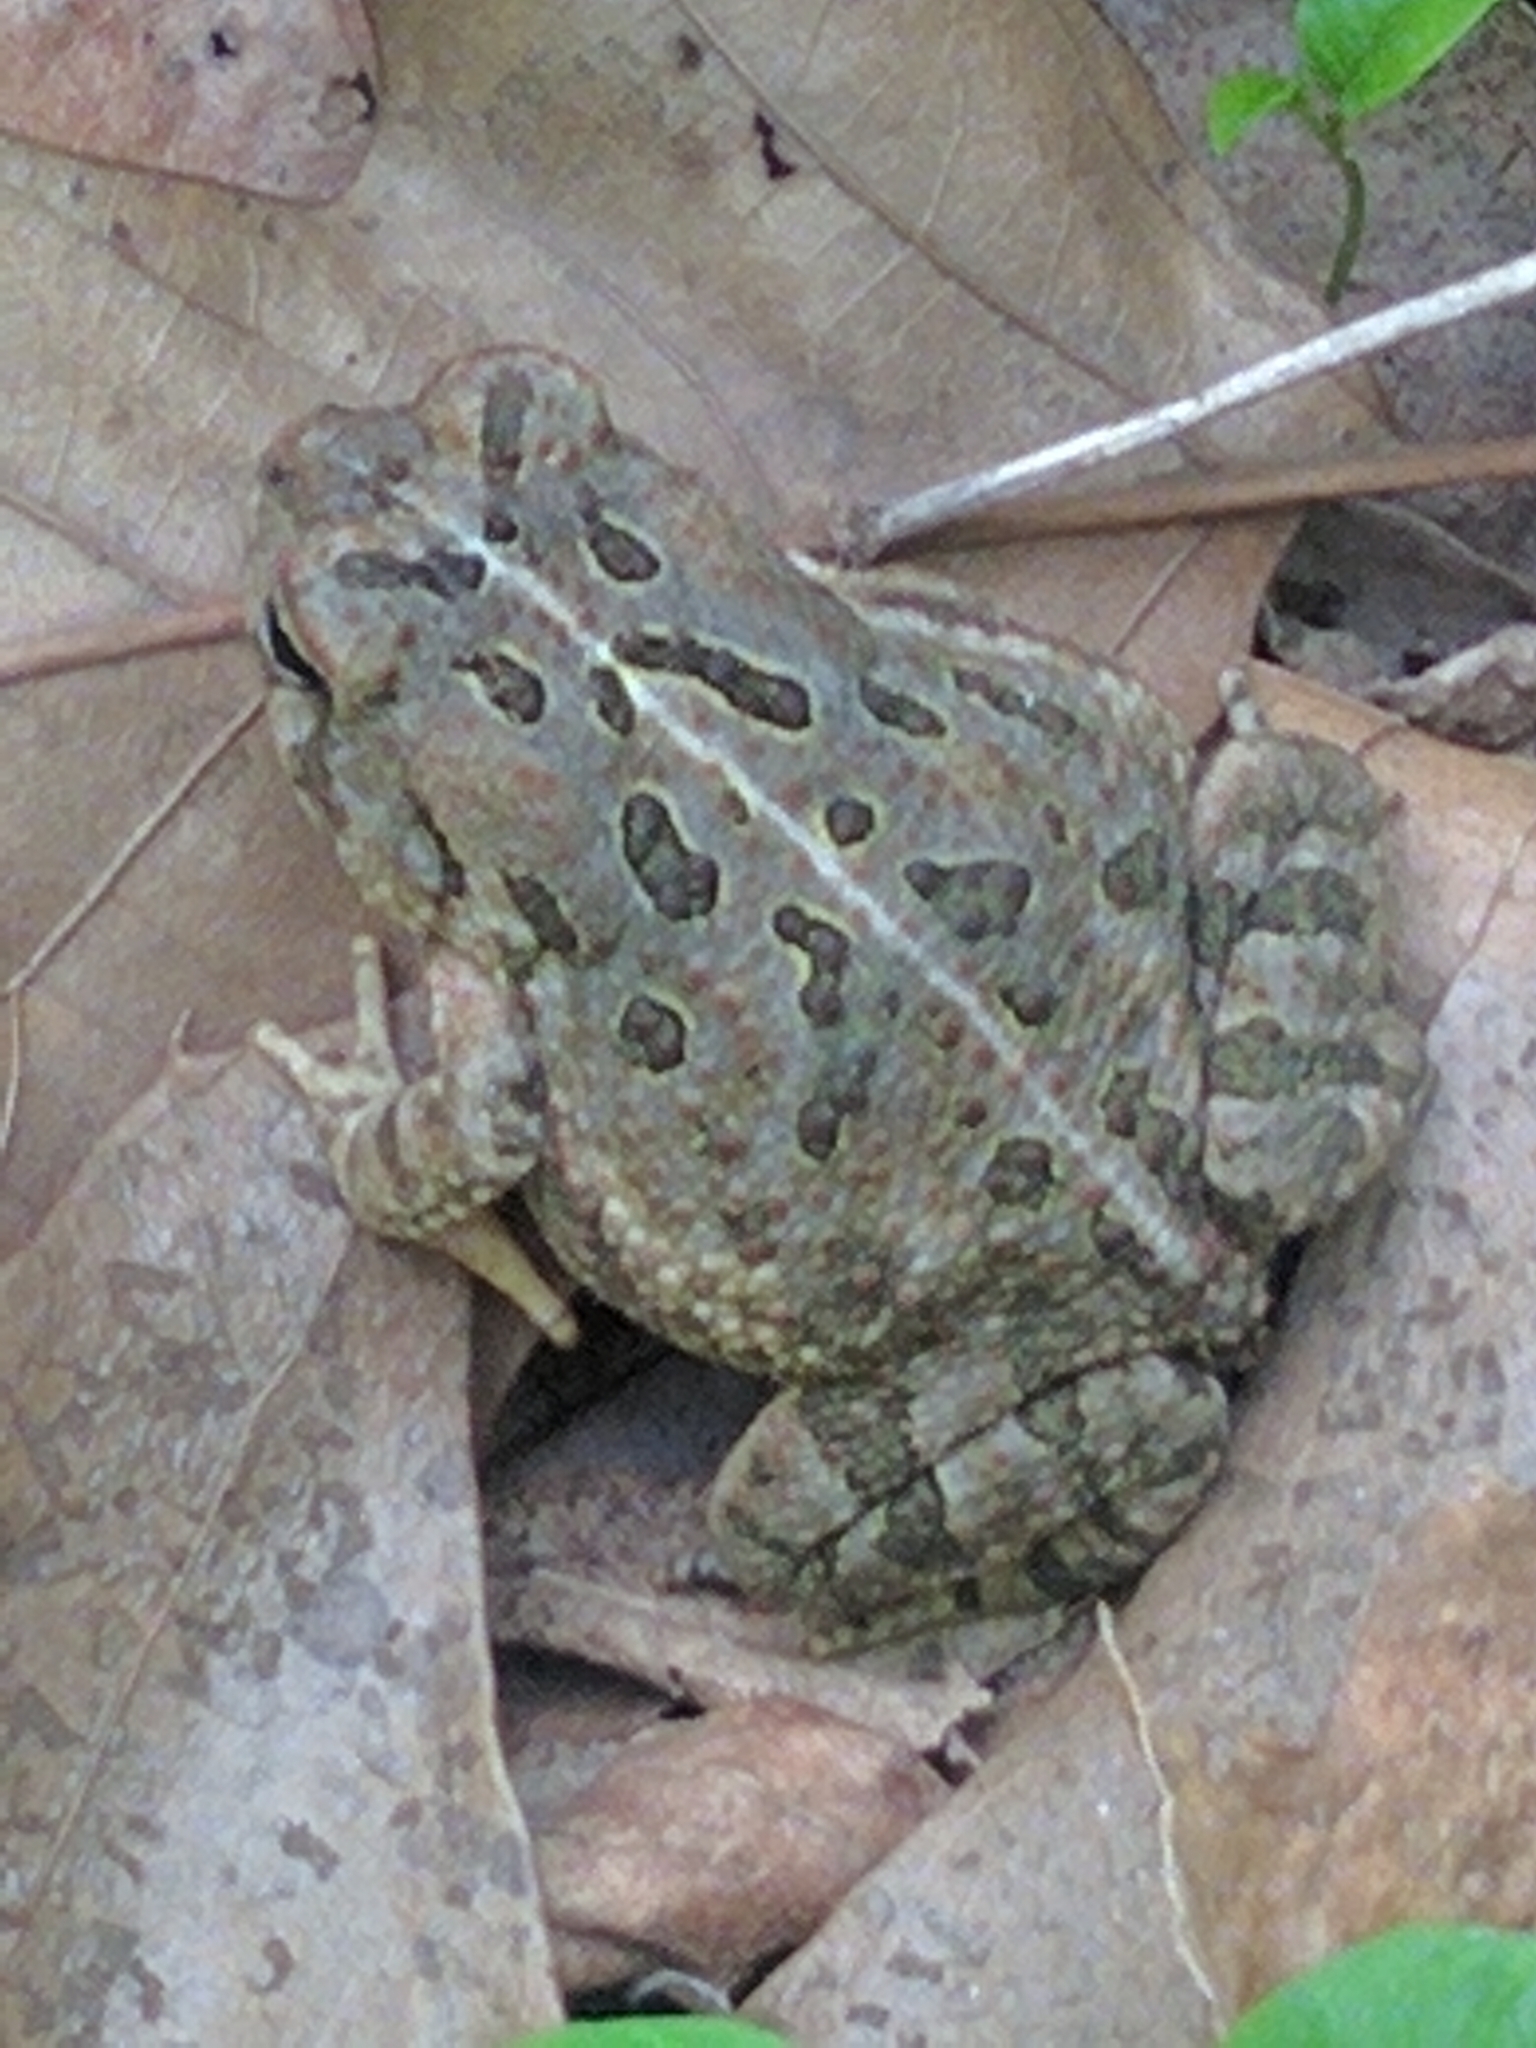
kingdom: Animalia
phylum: Chordata
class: Amphibia
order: Anura
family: Bufonidae
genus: Anaxyrus
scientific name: Anaxyrus fowleri
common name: Fowler's toad
